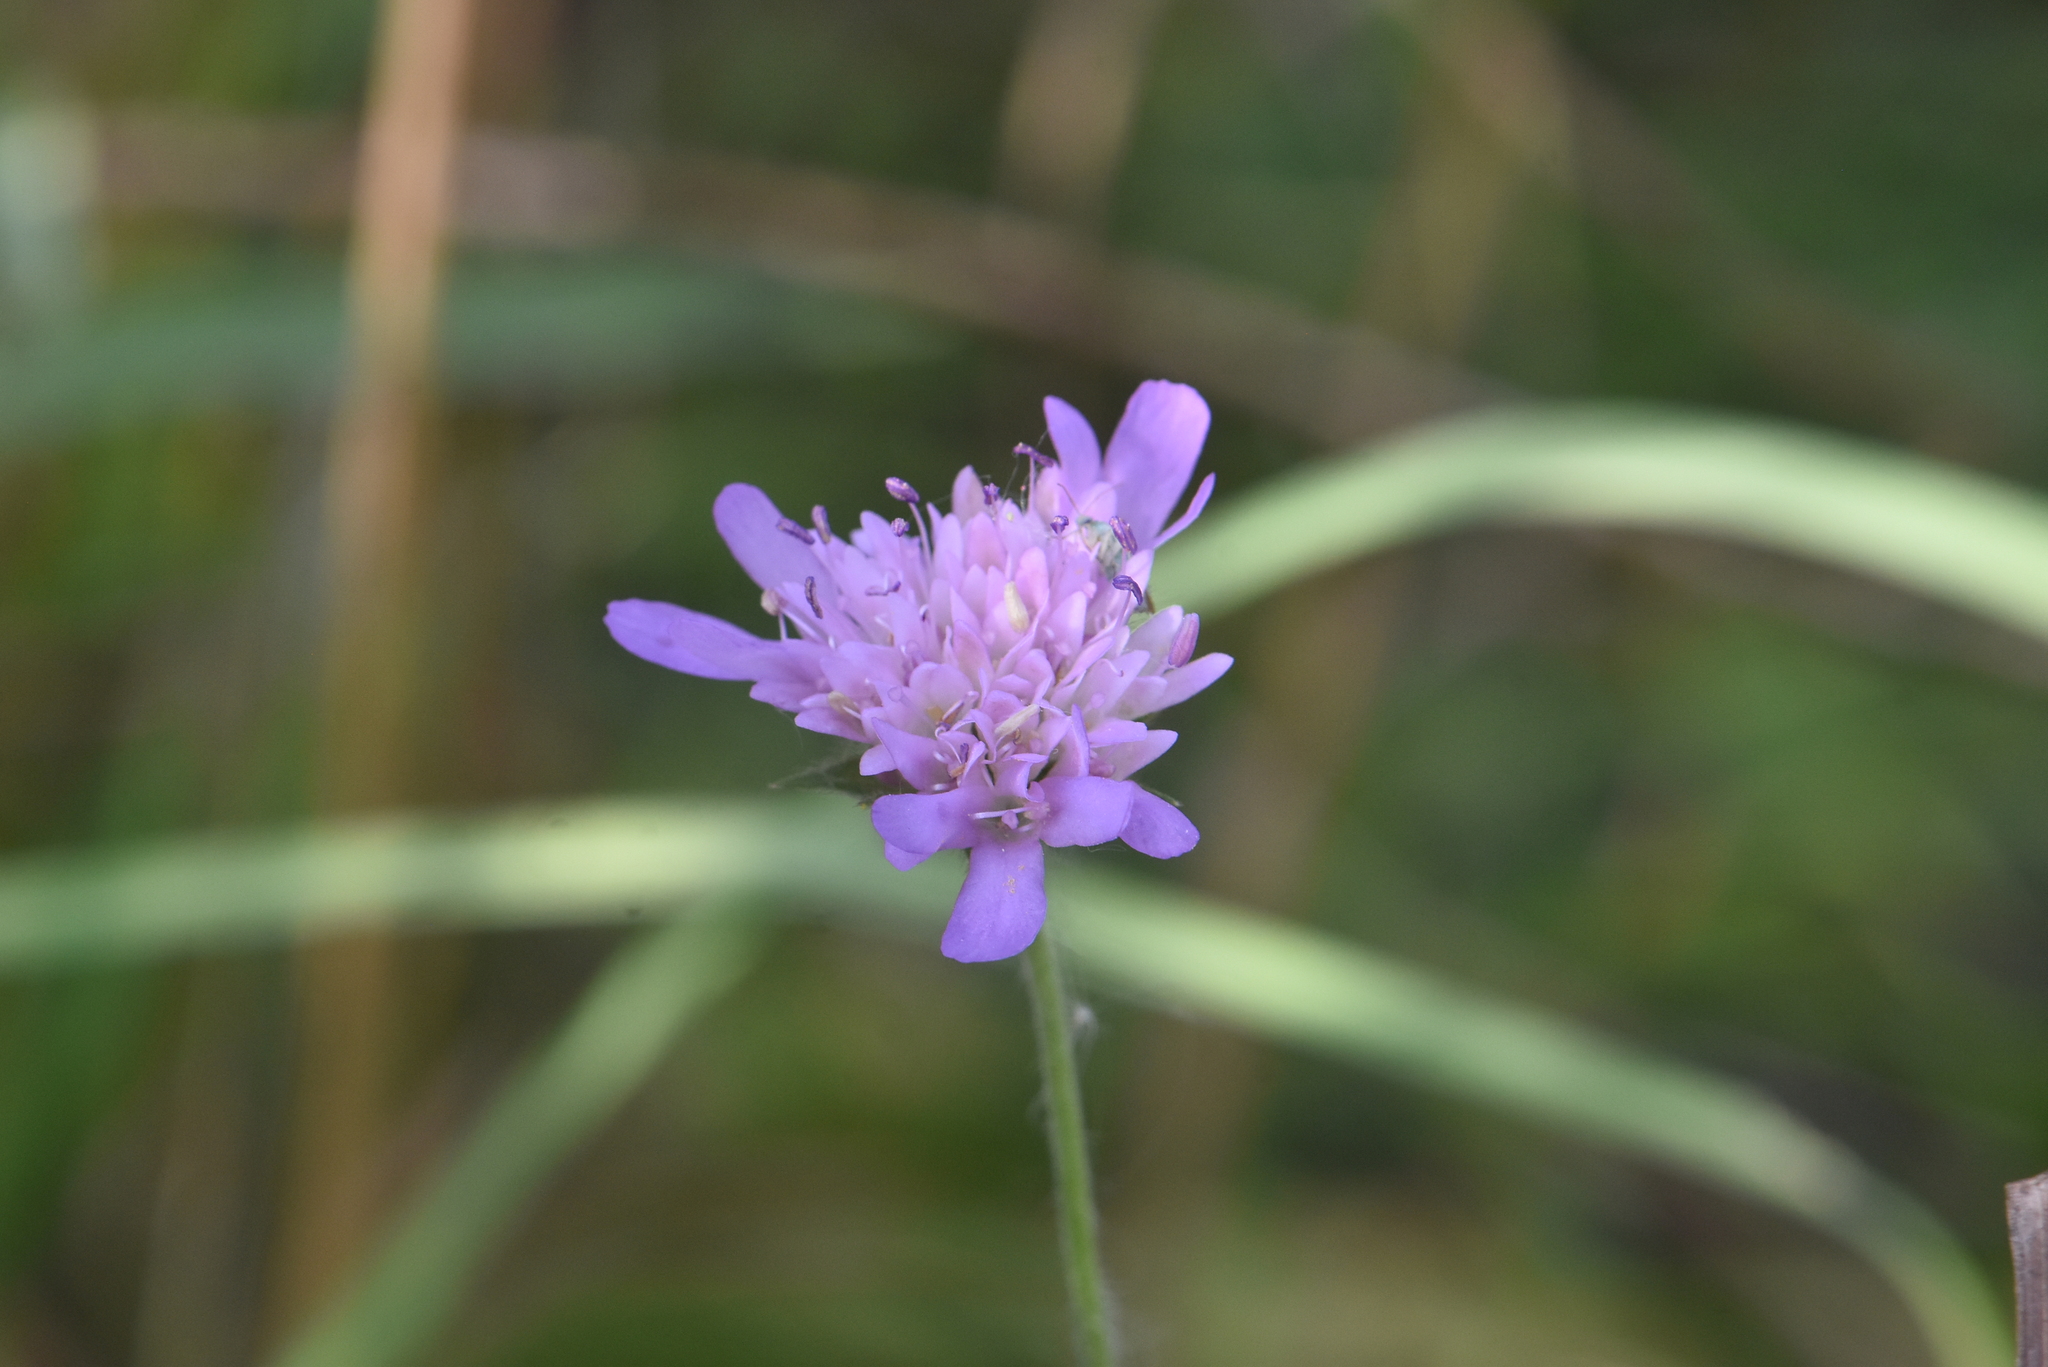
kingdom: Plantae
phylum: Tracheophyta
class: Magnoliopsida
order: Dipsacales
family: Caprifoliaceae
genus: Knautia
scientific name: Knautia arvensis
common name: Field scabiosa
